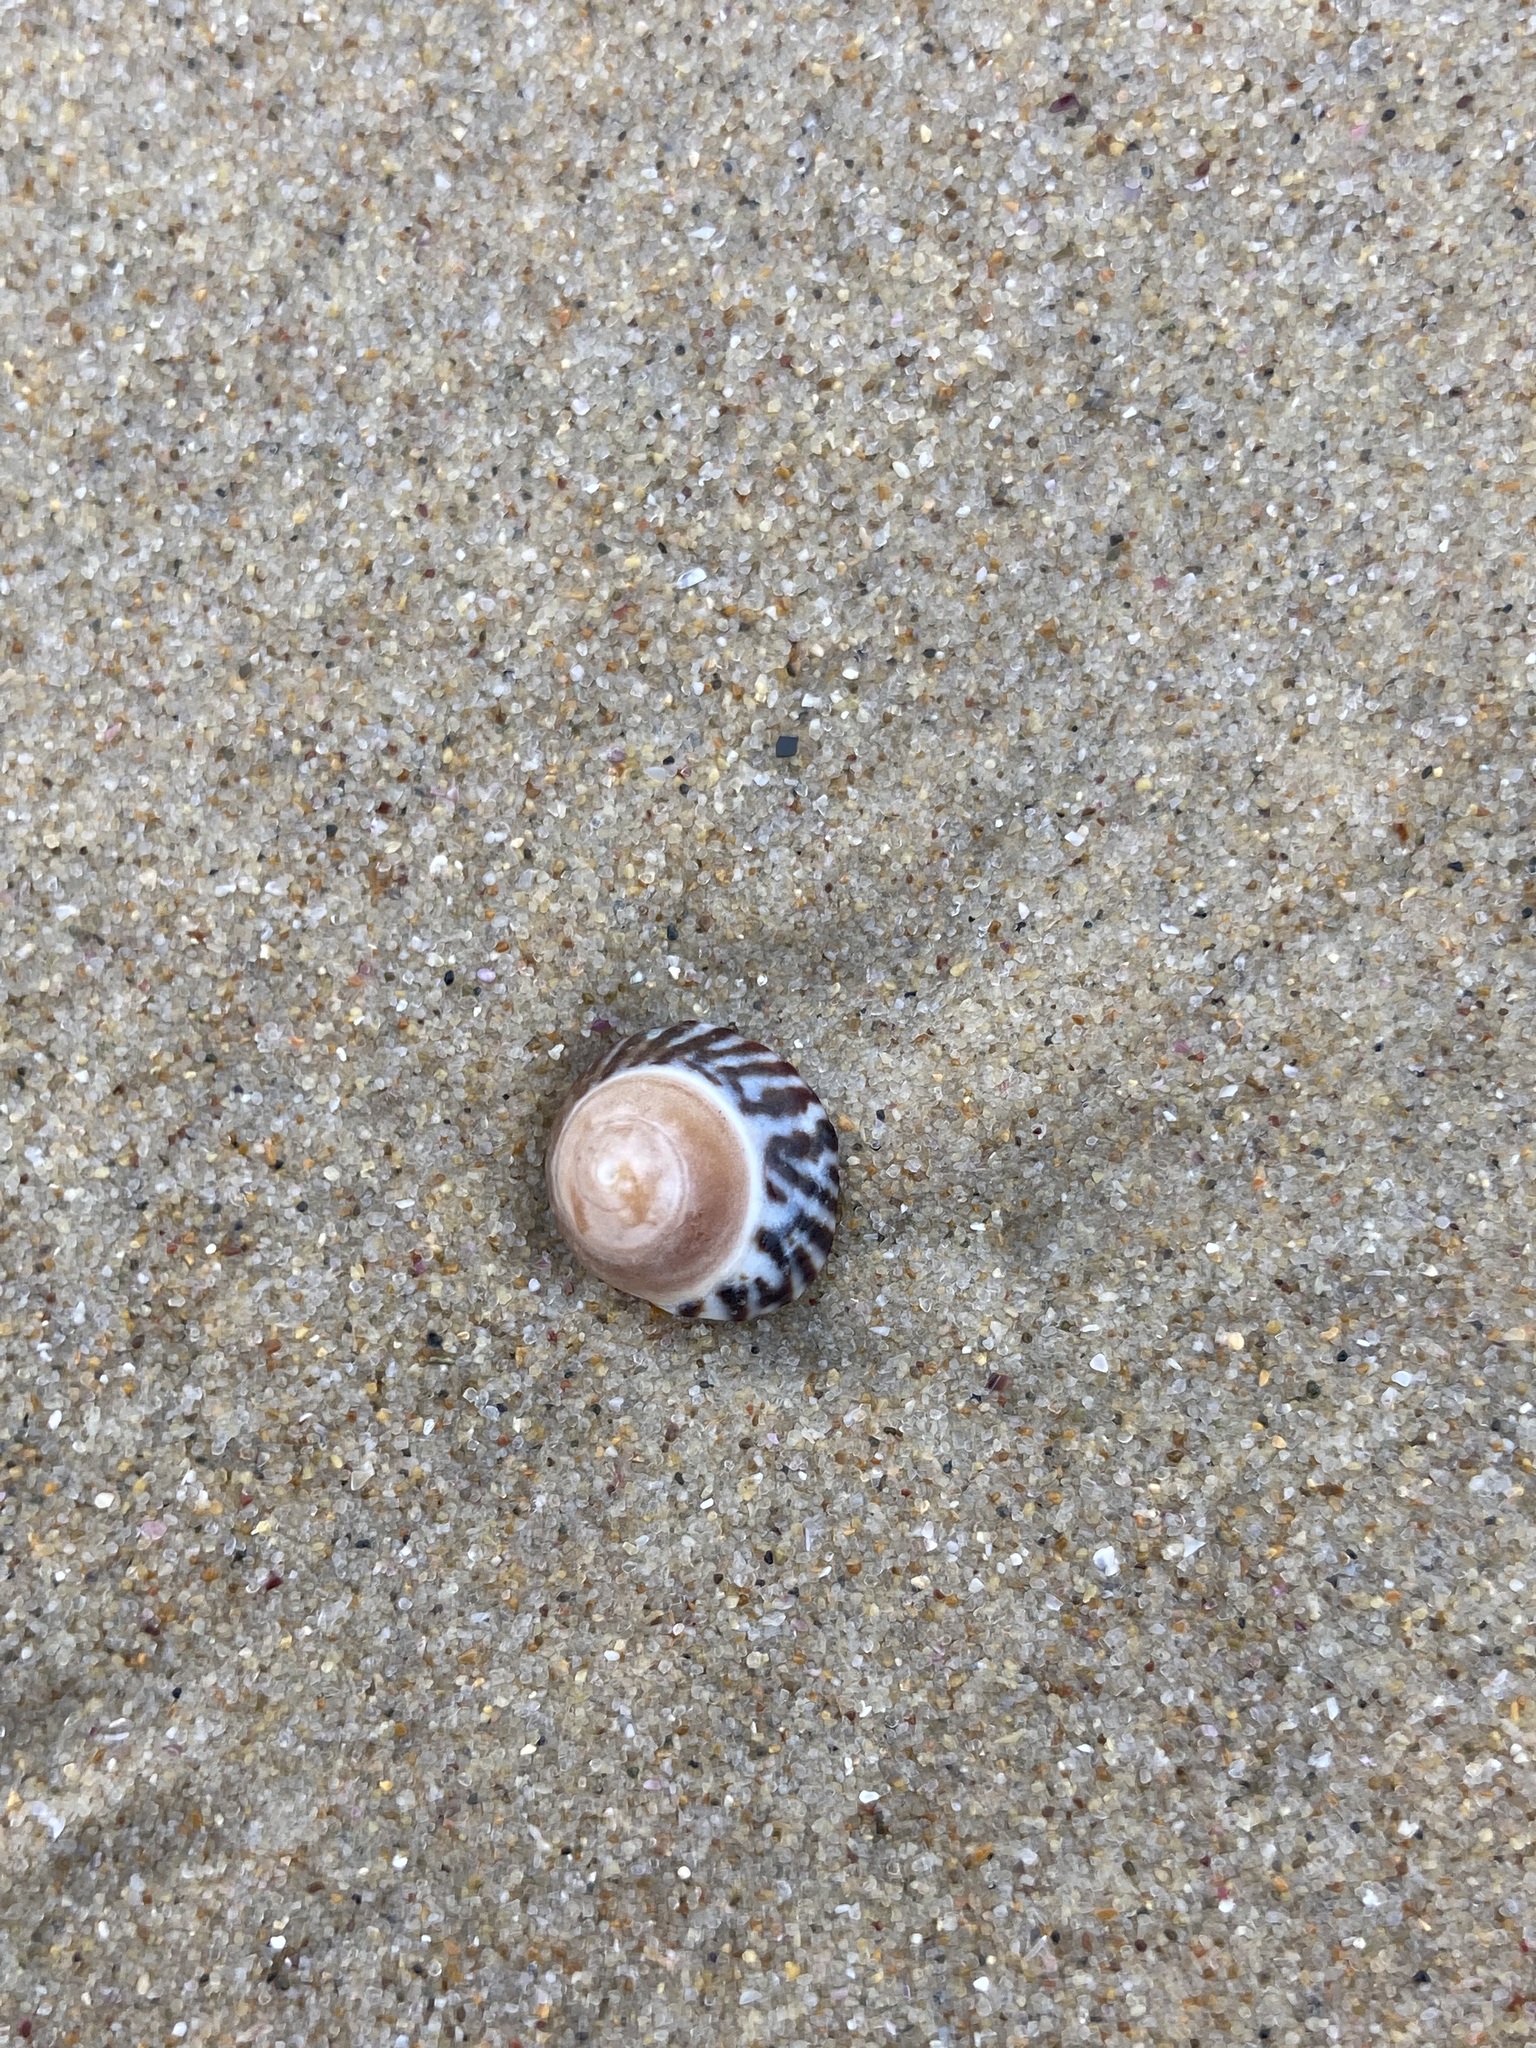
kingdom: Animalia
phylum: Mollusca
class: Gastropoda
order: Littorinimorpha
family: Littorinidae
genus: Bembicium
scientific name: Bembicium nanum
